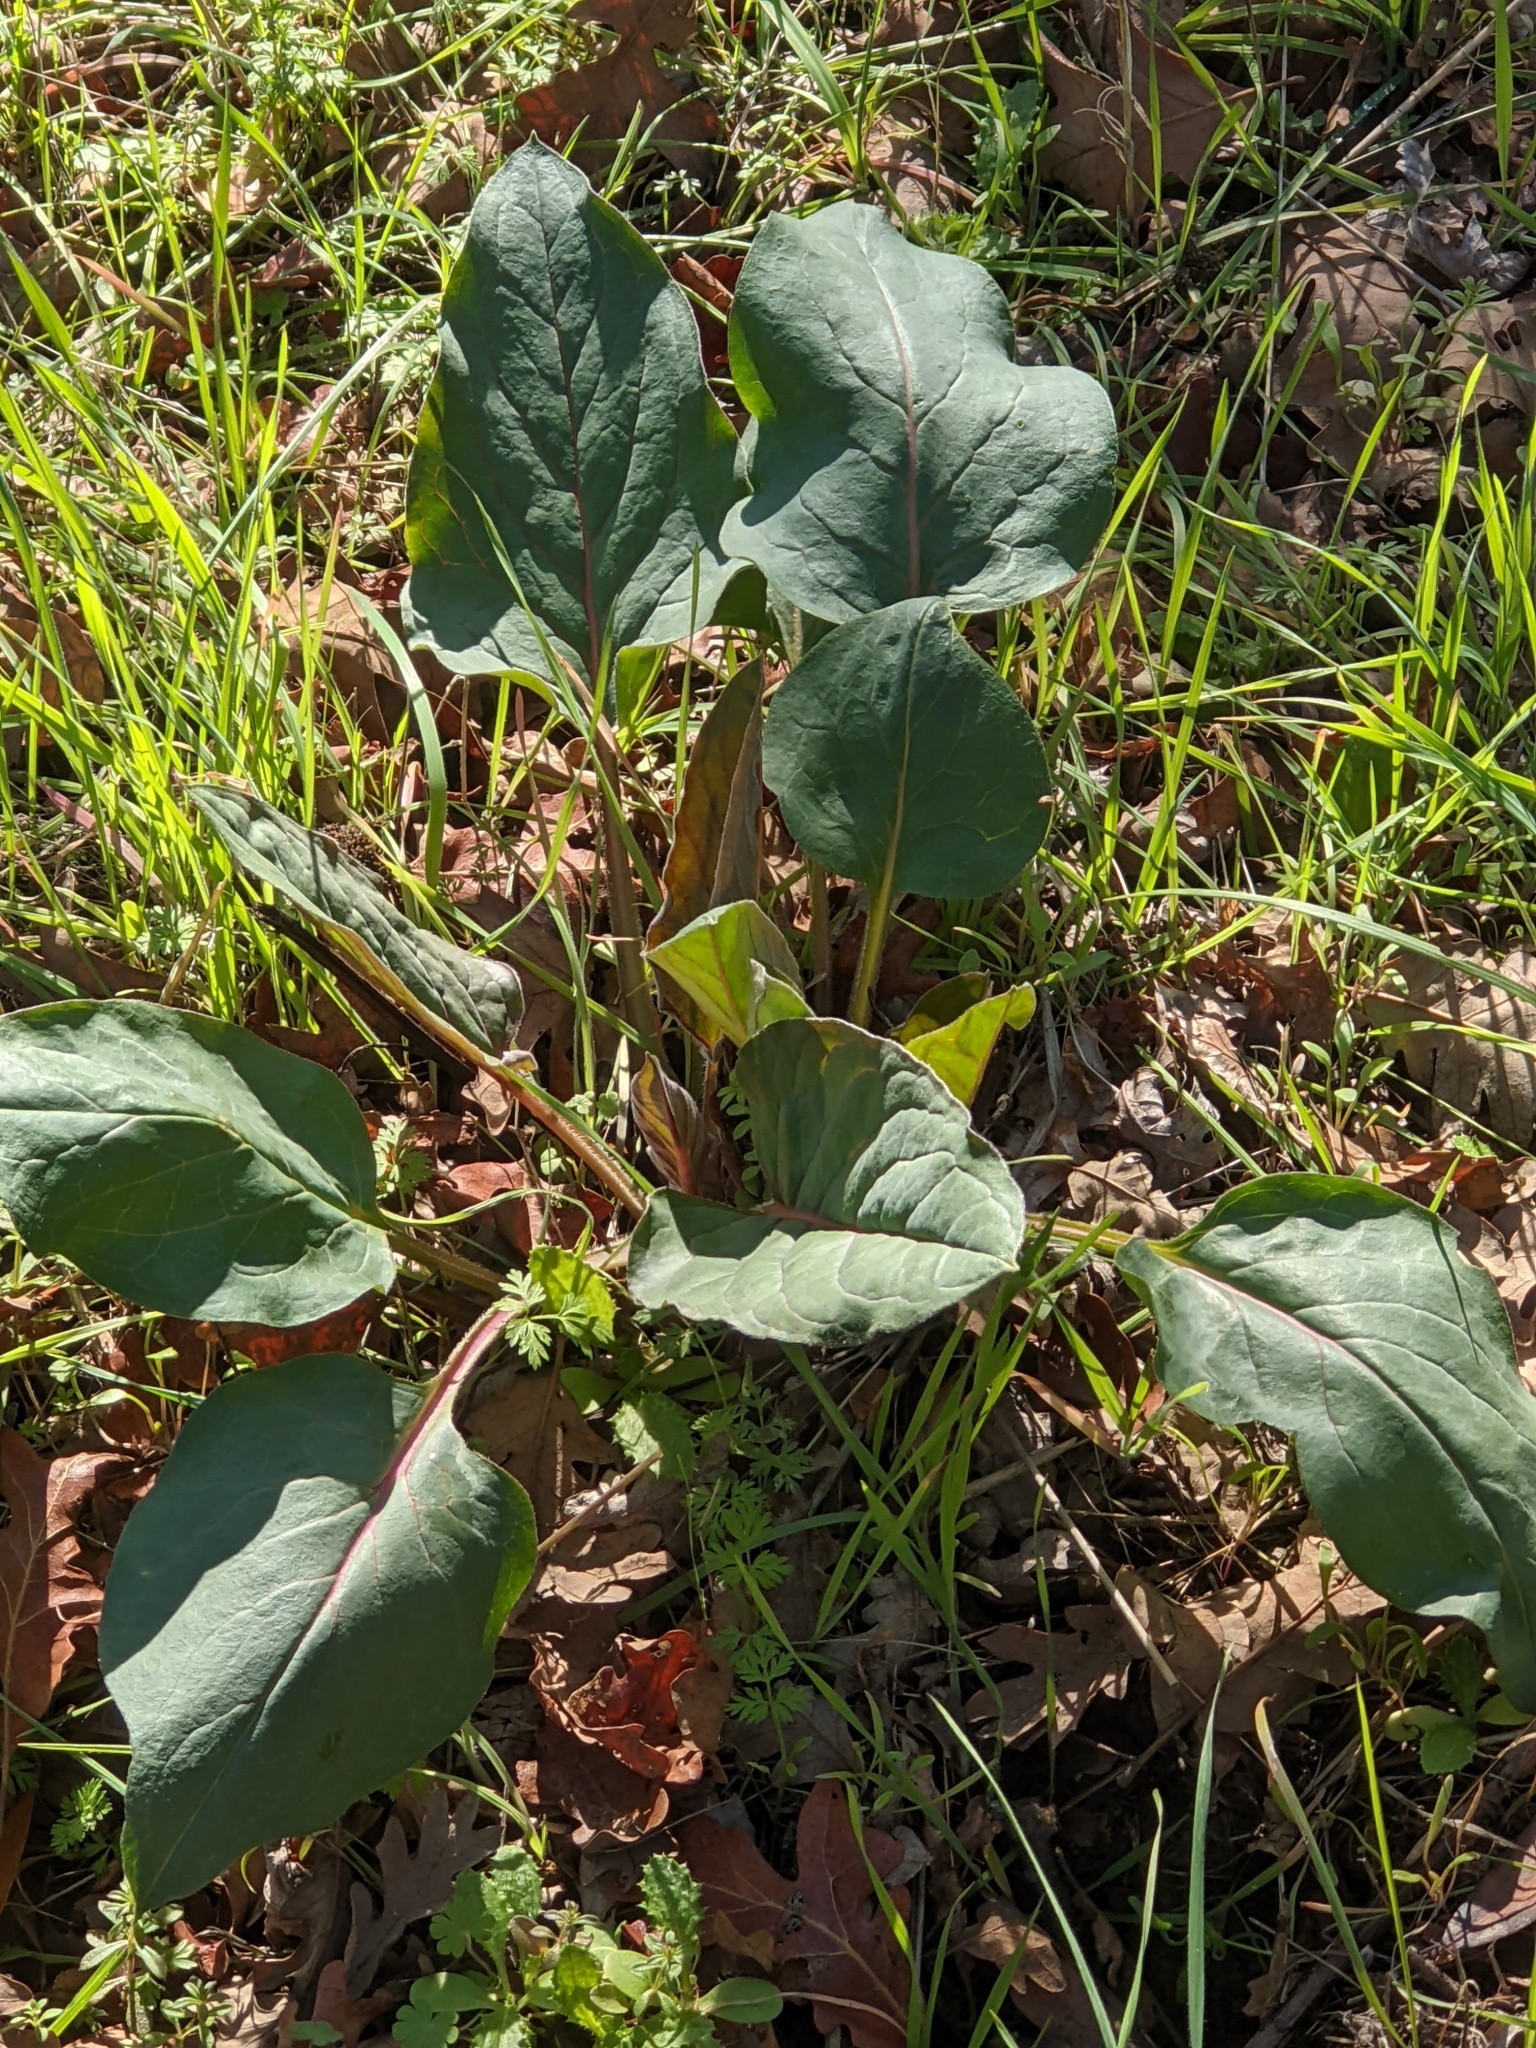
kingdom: Plantae
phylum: Tracheophyta
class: Magnoliopsida
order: Boraginales
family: Boraginaceae
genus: Adelinia
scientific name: Adelinia grande
